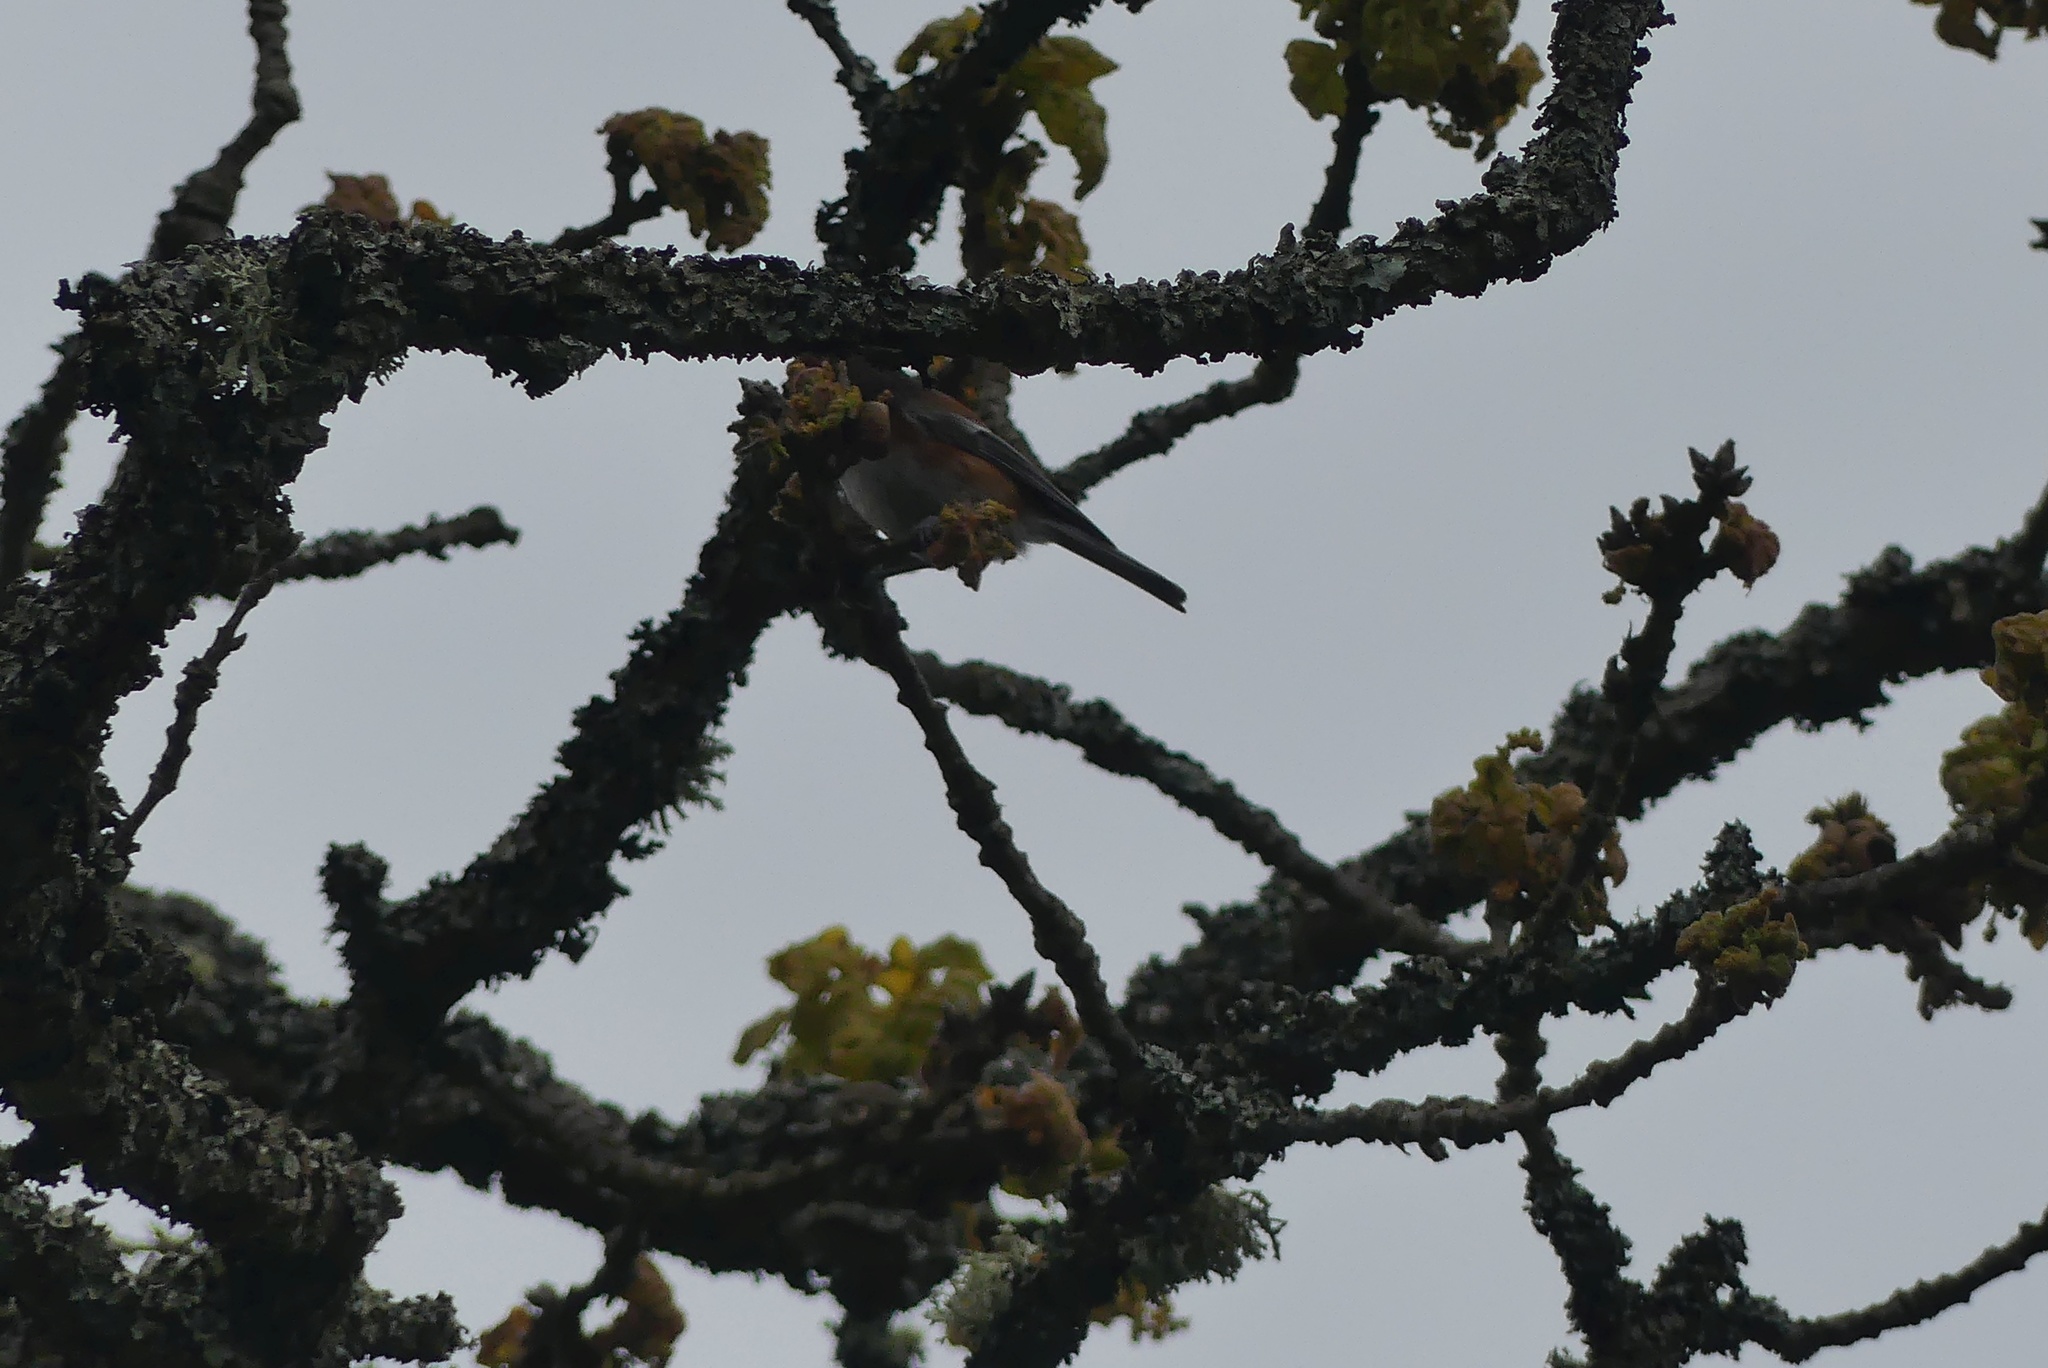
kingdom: Animalia
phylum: Chordata
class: Aves
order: Passeriformes
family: Paridae
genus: Poecile
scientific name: Poecile rufescens
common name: Chestnut-backed chickadee
